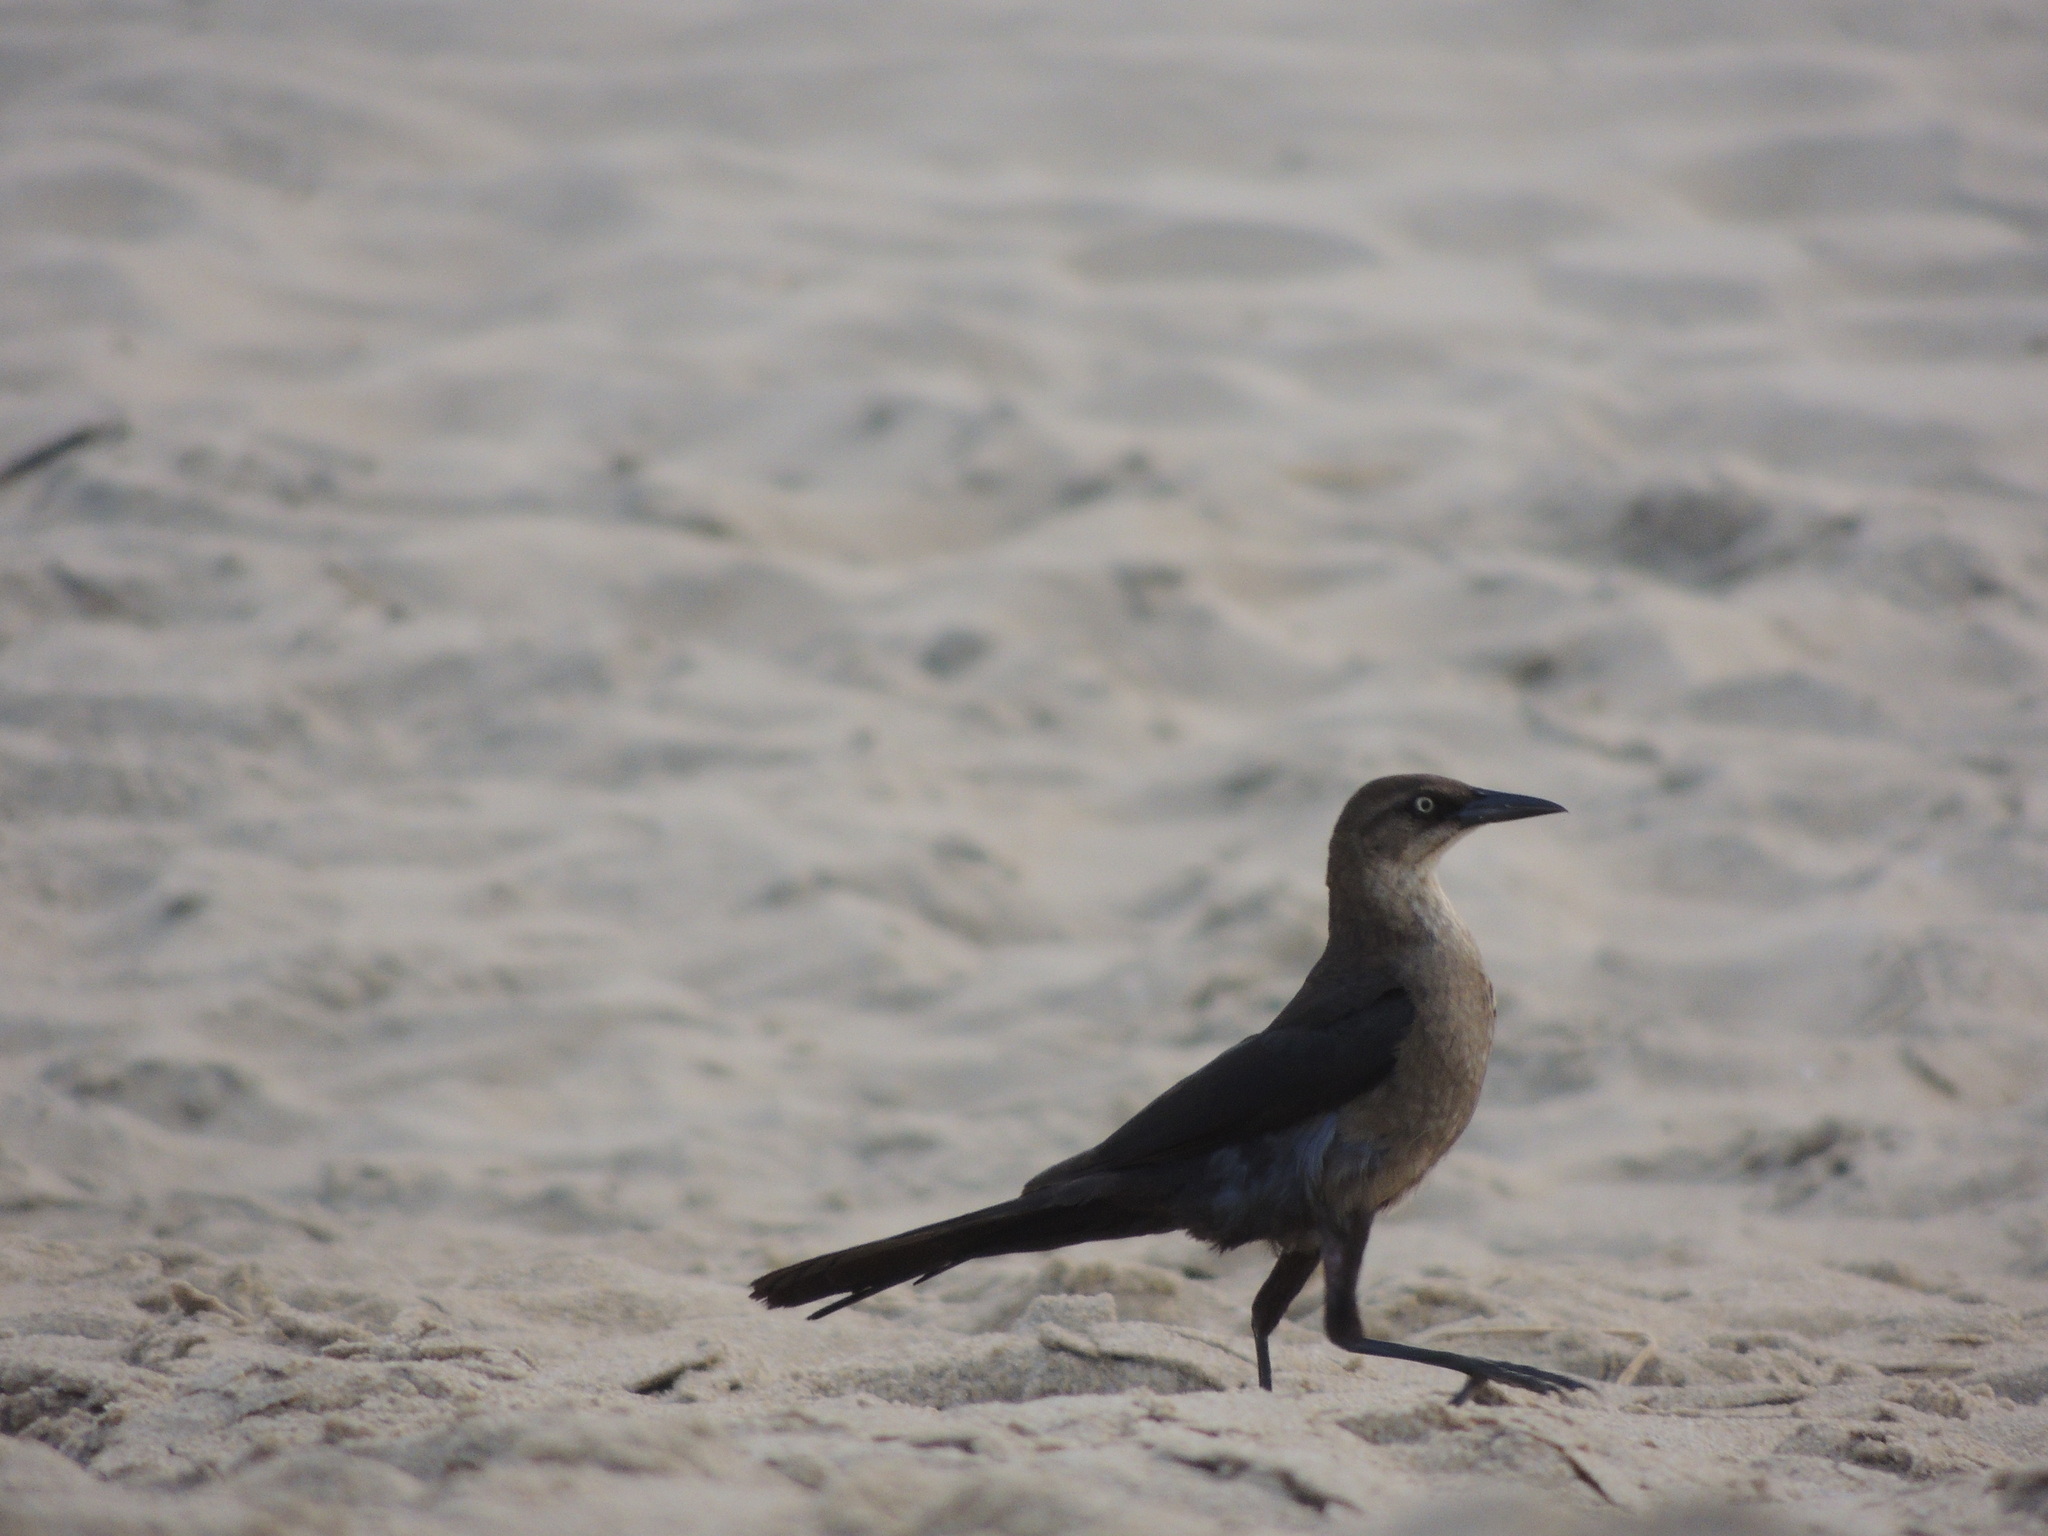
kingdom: Animalia
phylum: Chordata
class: Aves
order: Passeriformes
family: Icteridae
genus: Quiscalus
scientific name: Quiscalus major
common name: Boat-tailed grackle
